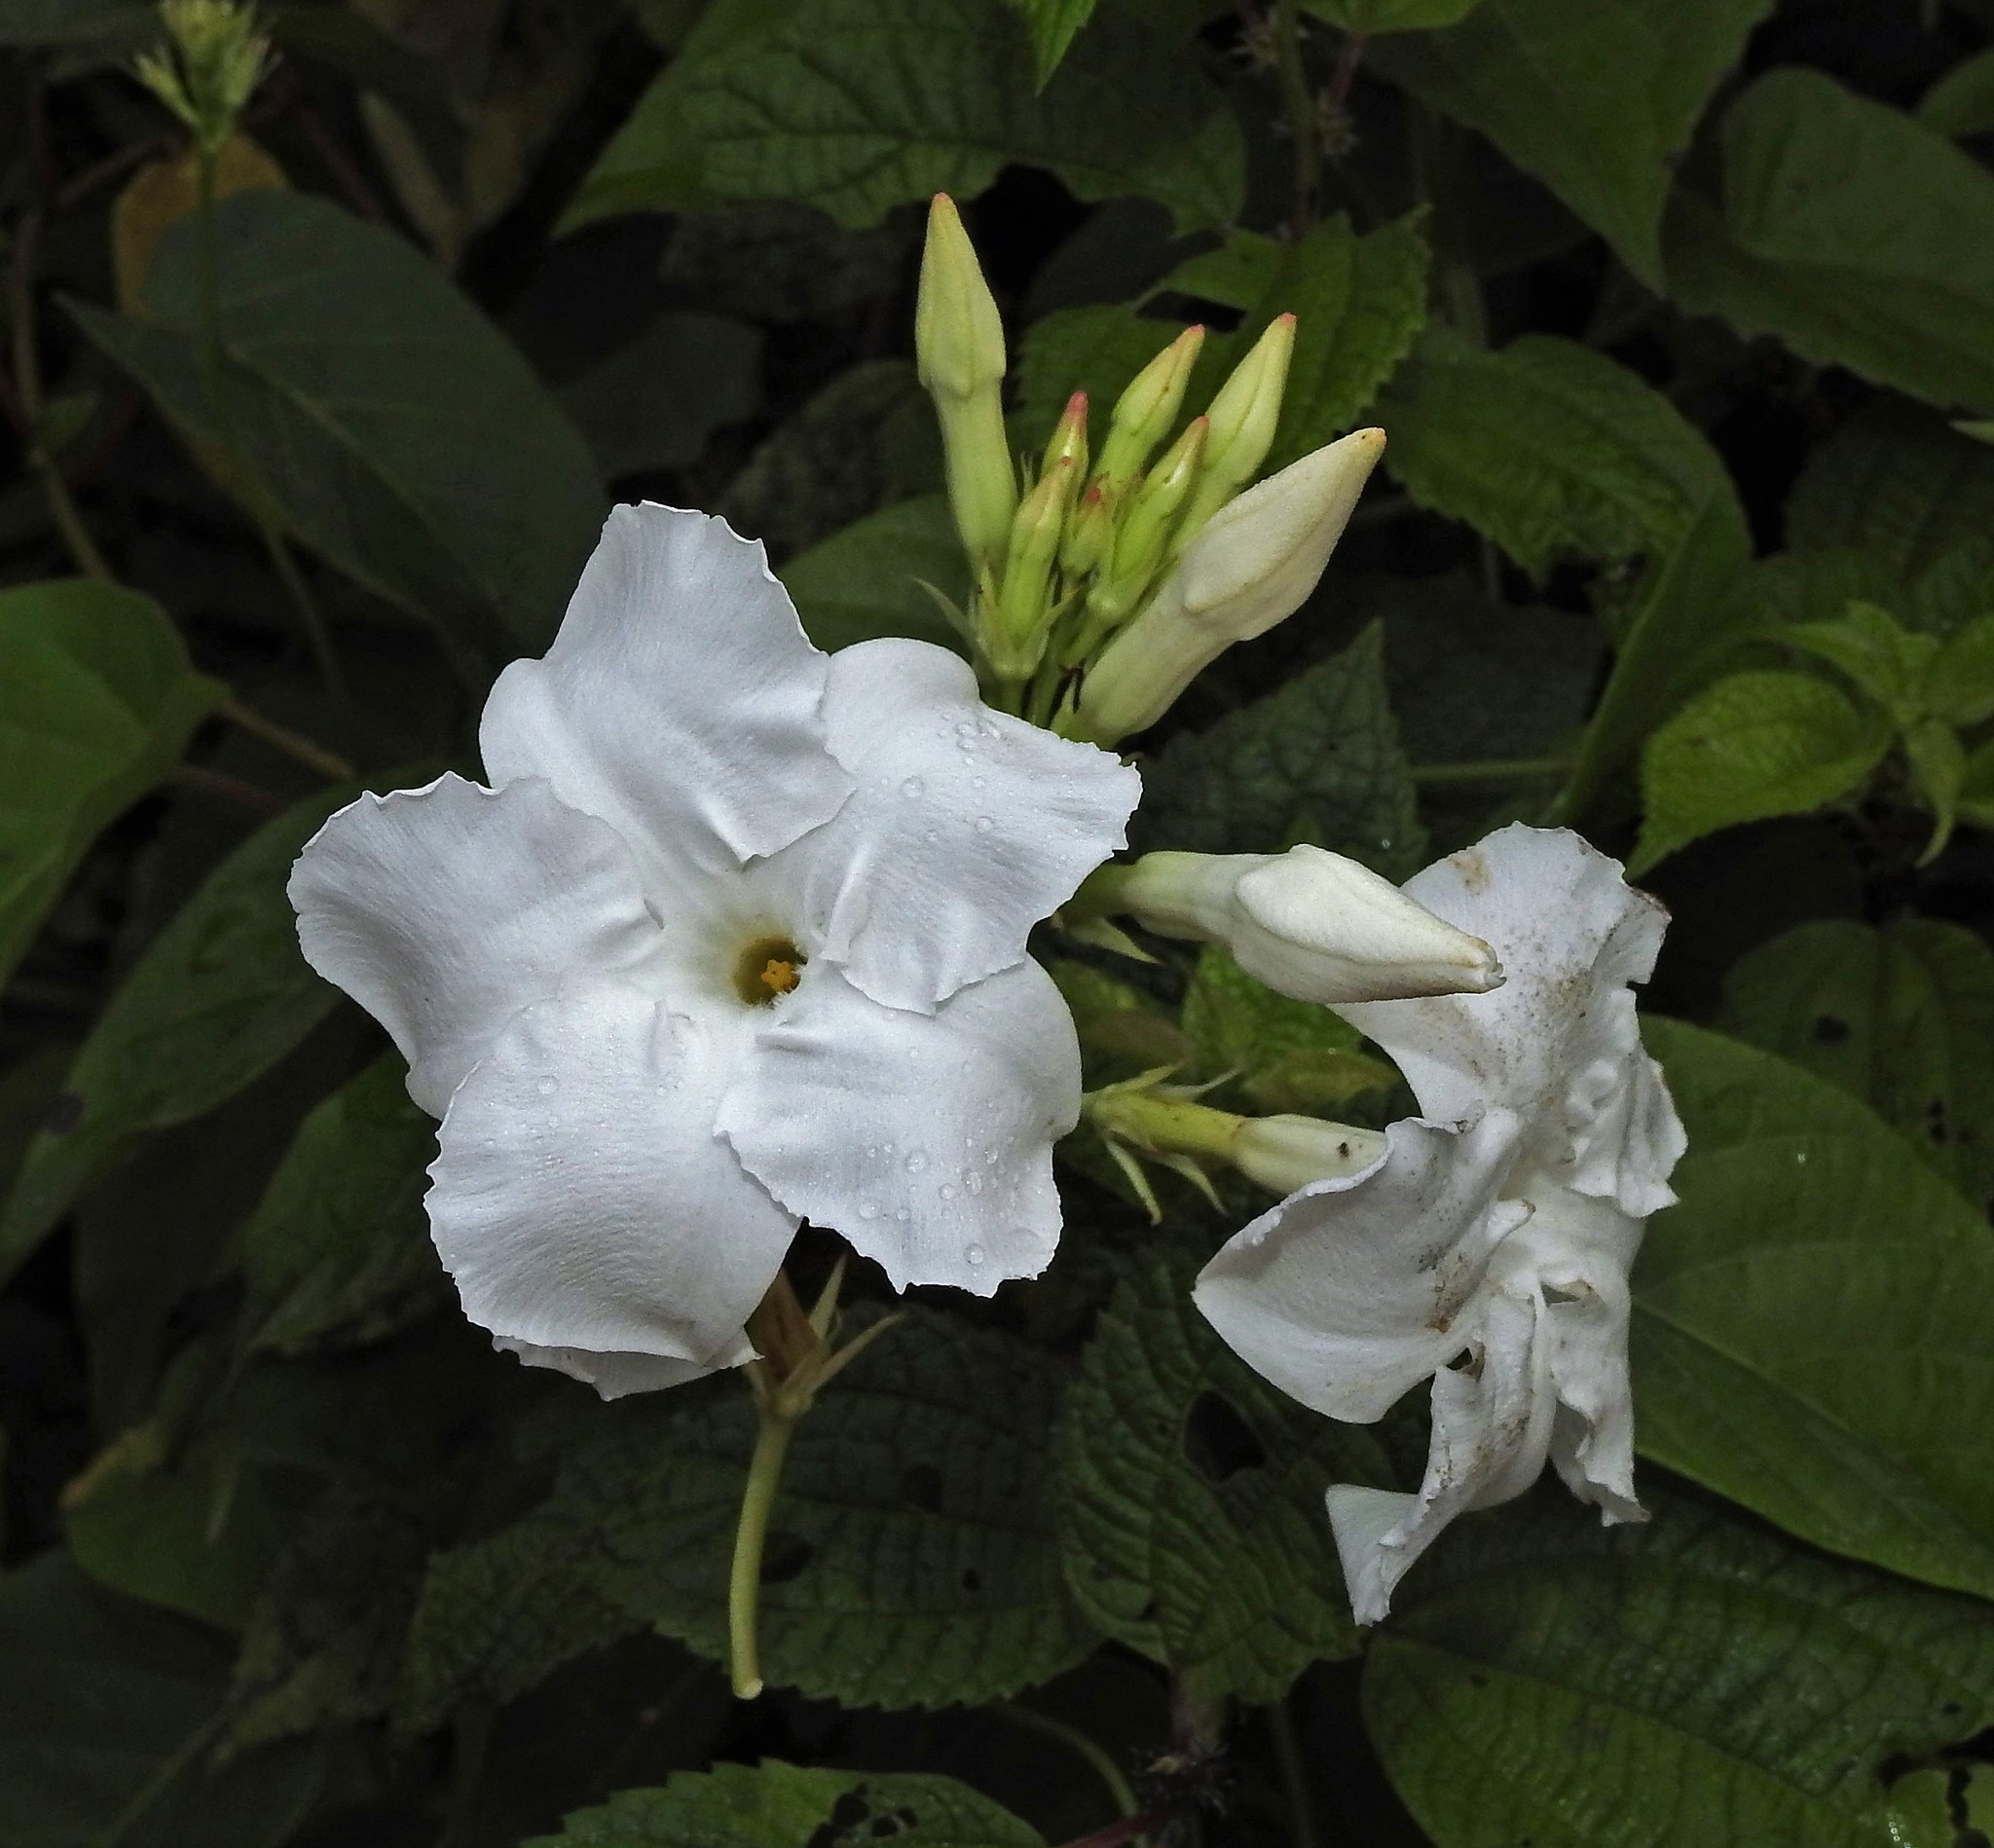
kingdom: Plantae
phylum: Tracheophyta
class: Magnoliopsida
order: Gentianales
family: Apocynaceae
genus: Mandevilla
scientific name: Mandevilla laxa
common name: Chilean-jasmine
